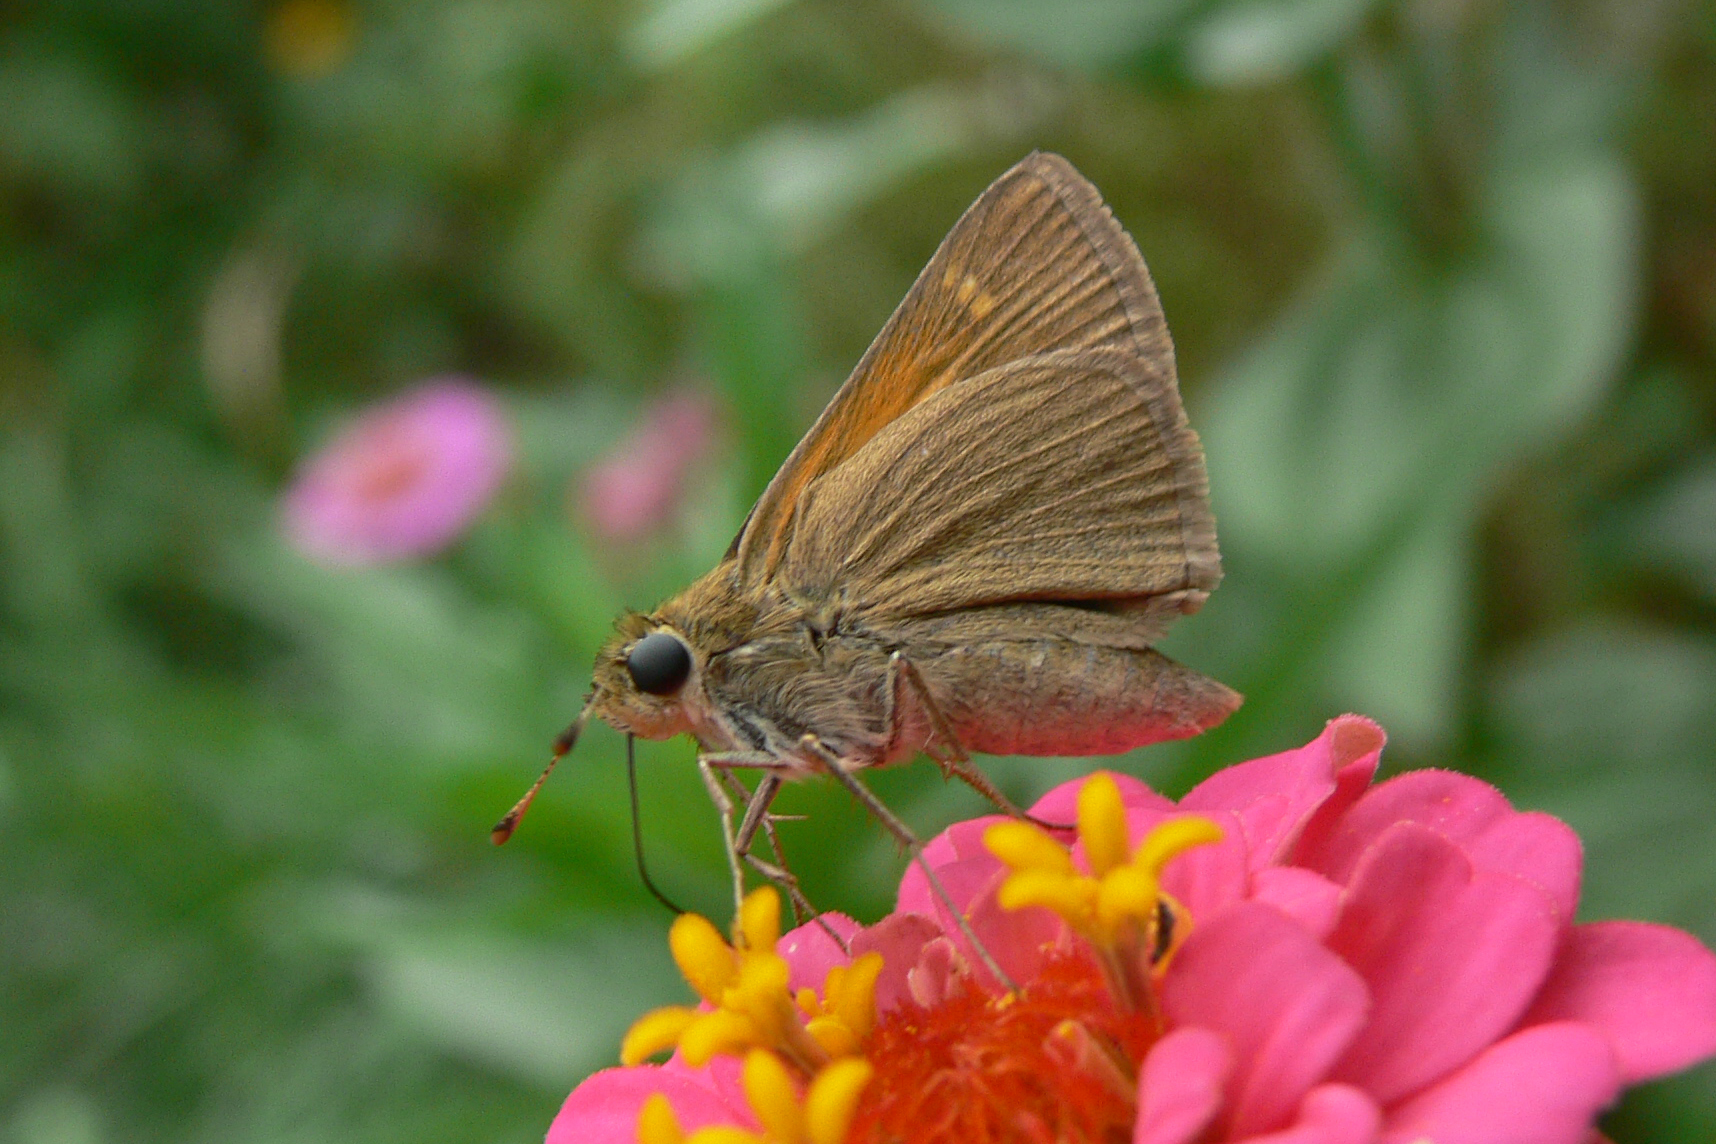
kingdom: Animalia
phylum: Arthropoda
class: Insecta
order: Lepidoptera
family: Hesperiidae
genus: Polites
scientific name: Polites themistocles
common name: Tawny-edged skipper
